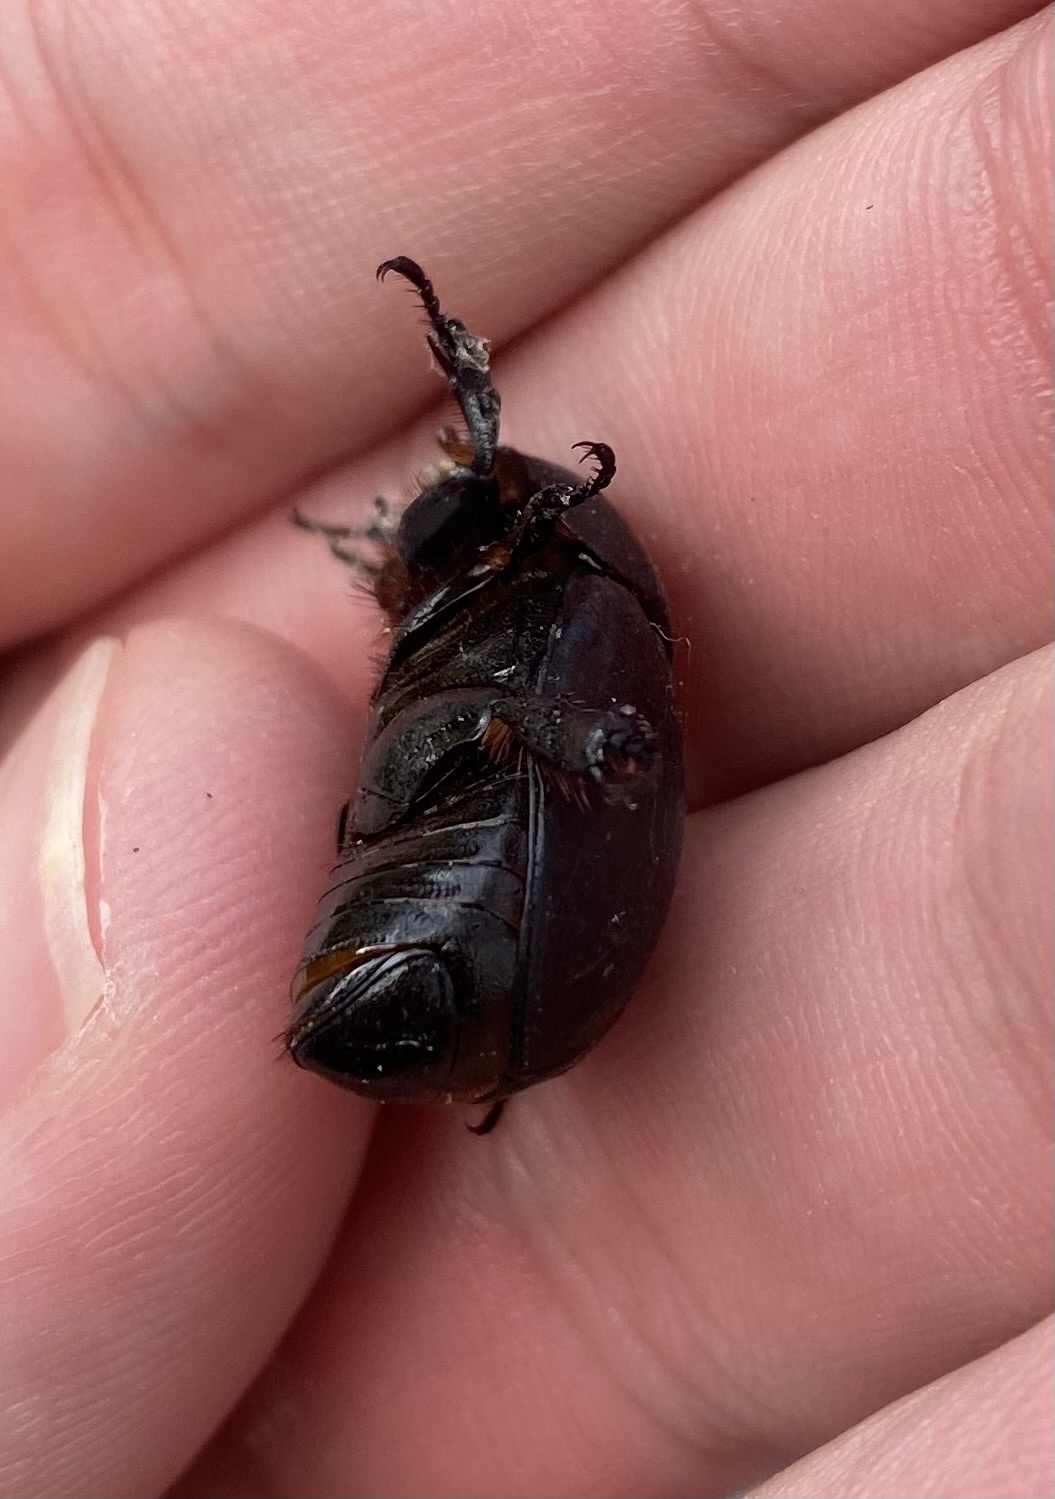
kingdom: Animalia
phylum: Arthropoda
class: Insecta
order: Coleoptera
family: Scarabaeidae
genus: Pentodon
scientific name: Pentodon idiota
